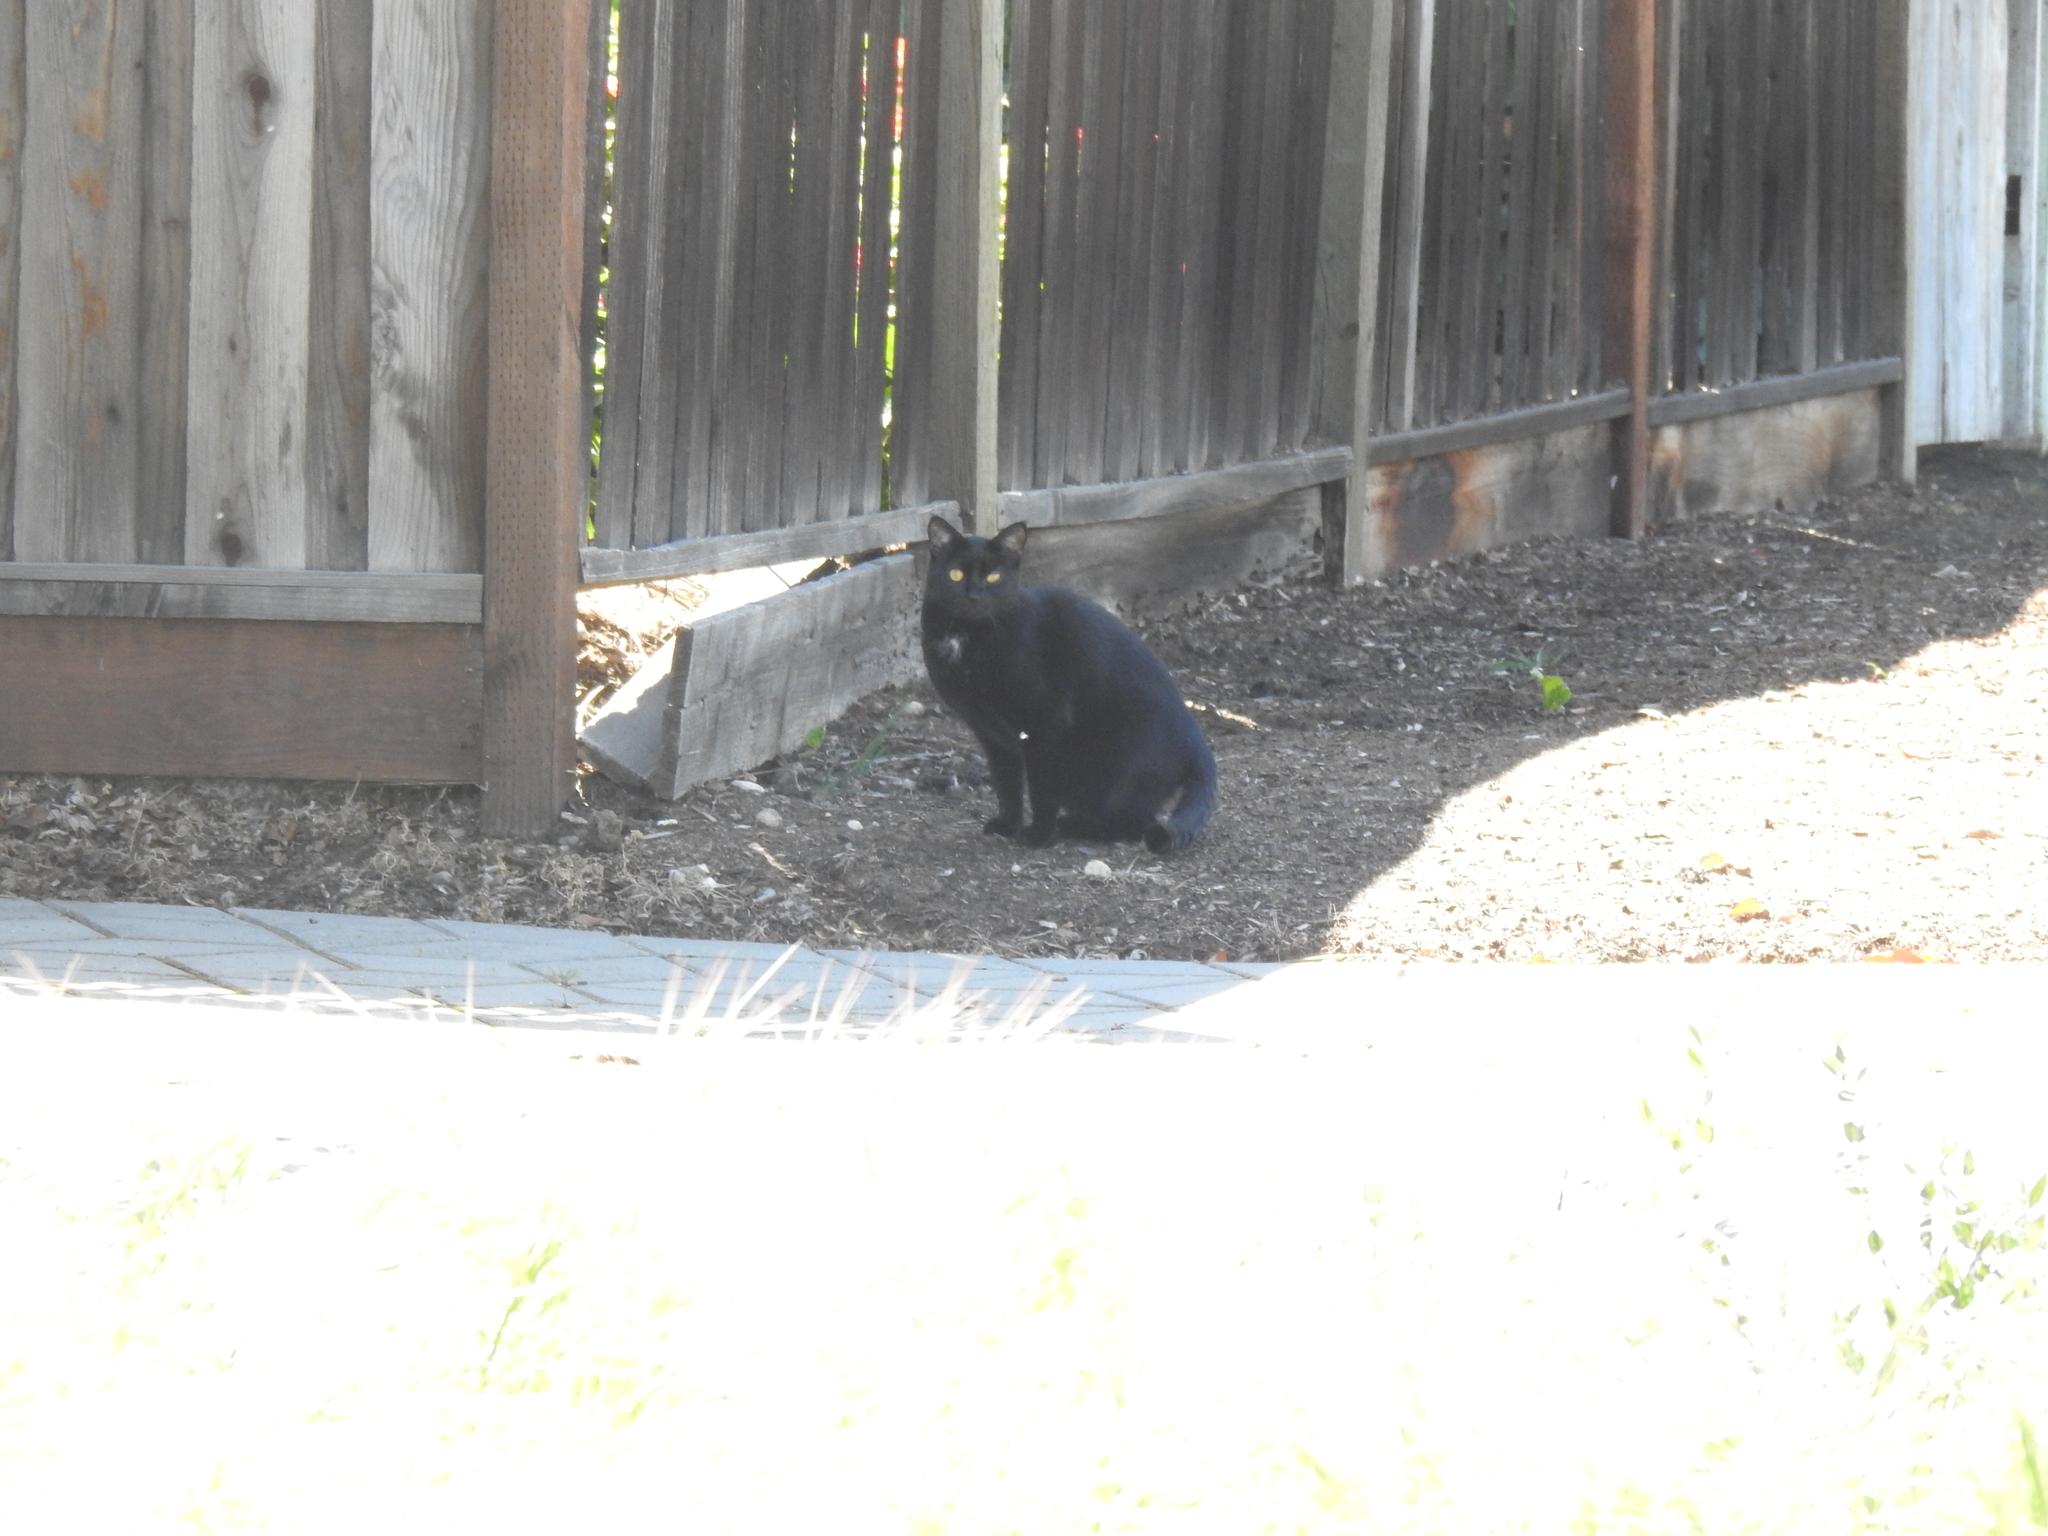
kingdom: Animalia
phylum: Chordata
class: Mammalia
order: Carnivora
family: Felidae
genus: Felis
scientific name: Felis catus
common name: Domestic cat
